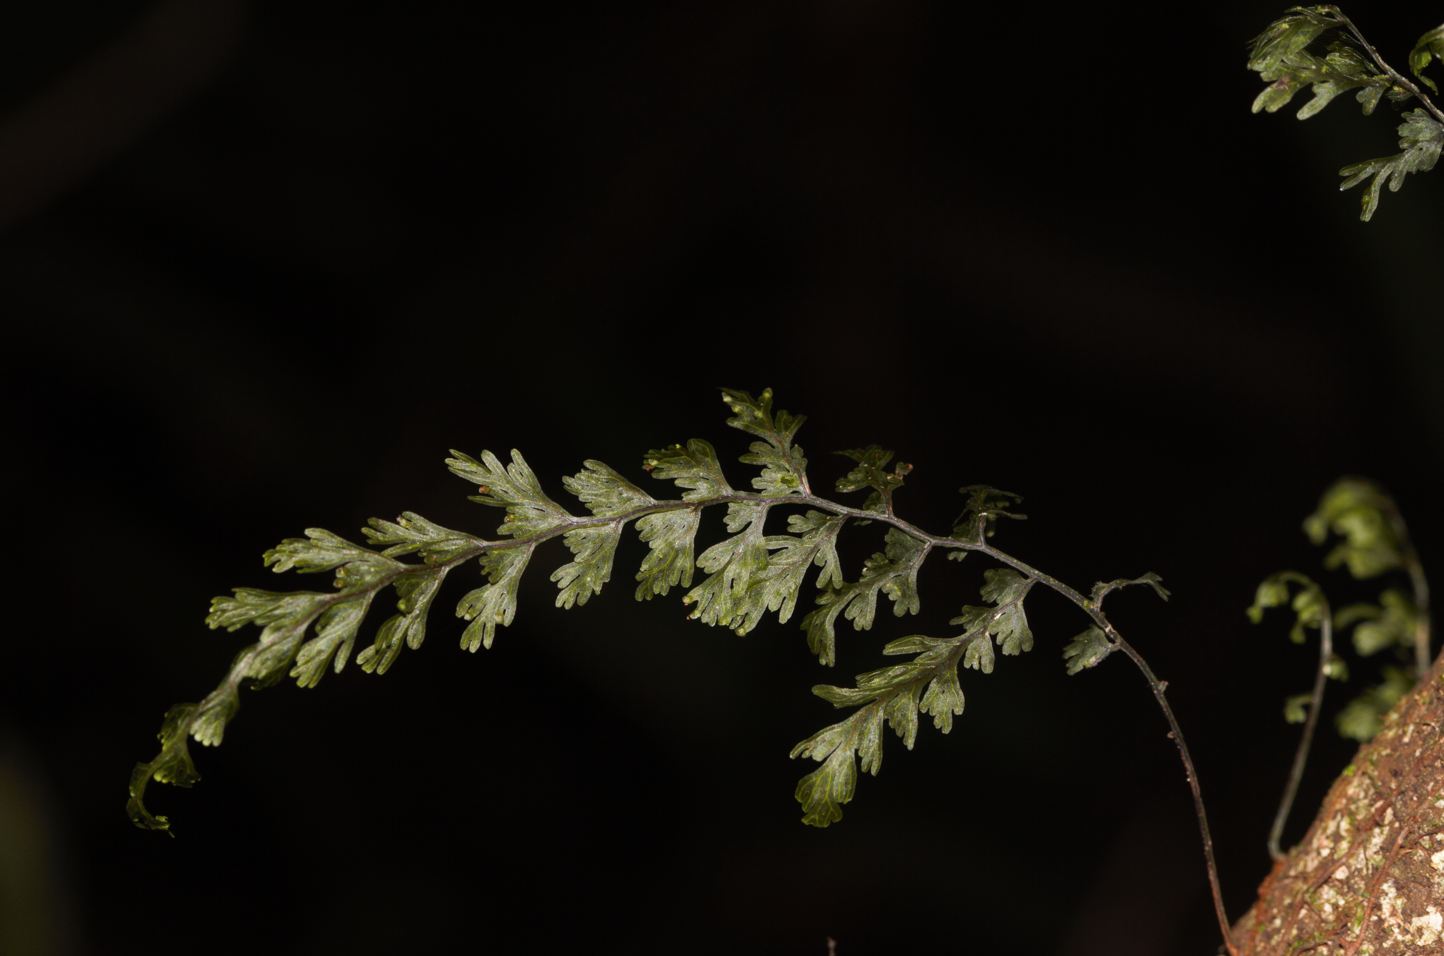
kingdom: Plantae
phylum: Tracheophyta
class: Polypodiopsida
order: Hymenophyllales
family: Hymenophyllaceae
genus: Hymenophyllum
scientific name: Hymenophyllum protrusum
